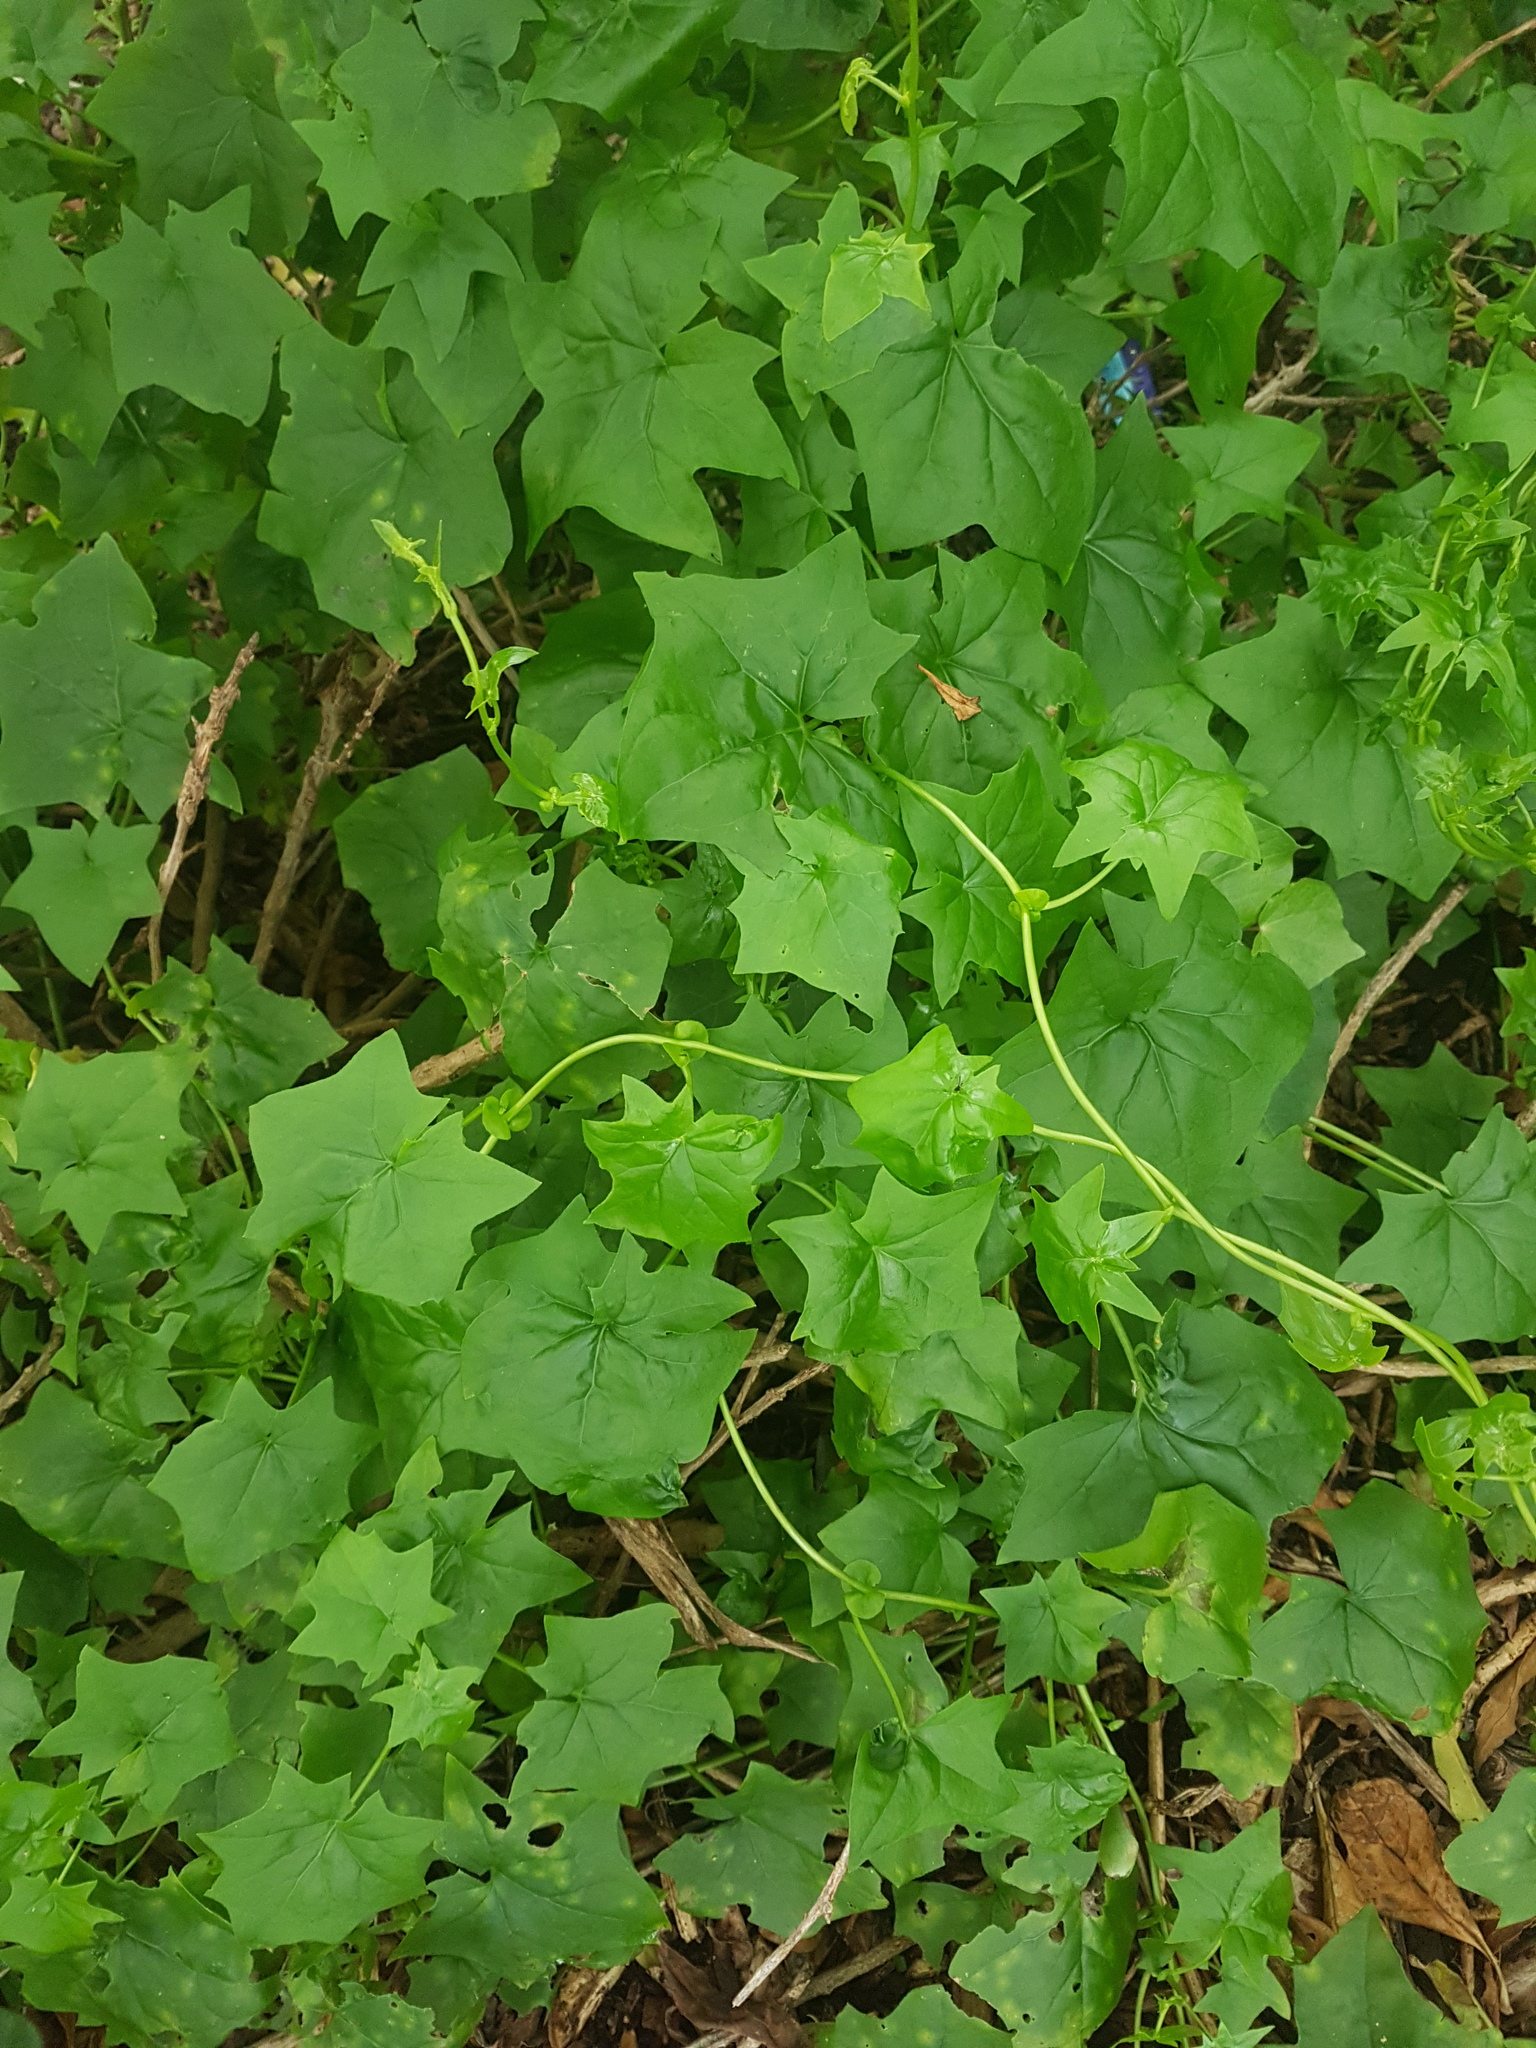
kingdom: Plantae
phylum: Tracheophyta
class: Magnoliopsida
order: Asterales
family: Asteraceae
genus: Delairea
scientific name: Delairea odorata
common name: Cape-ivy
